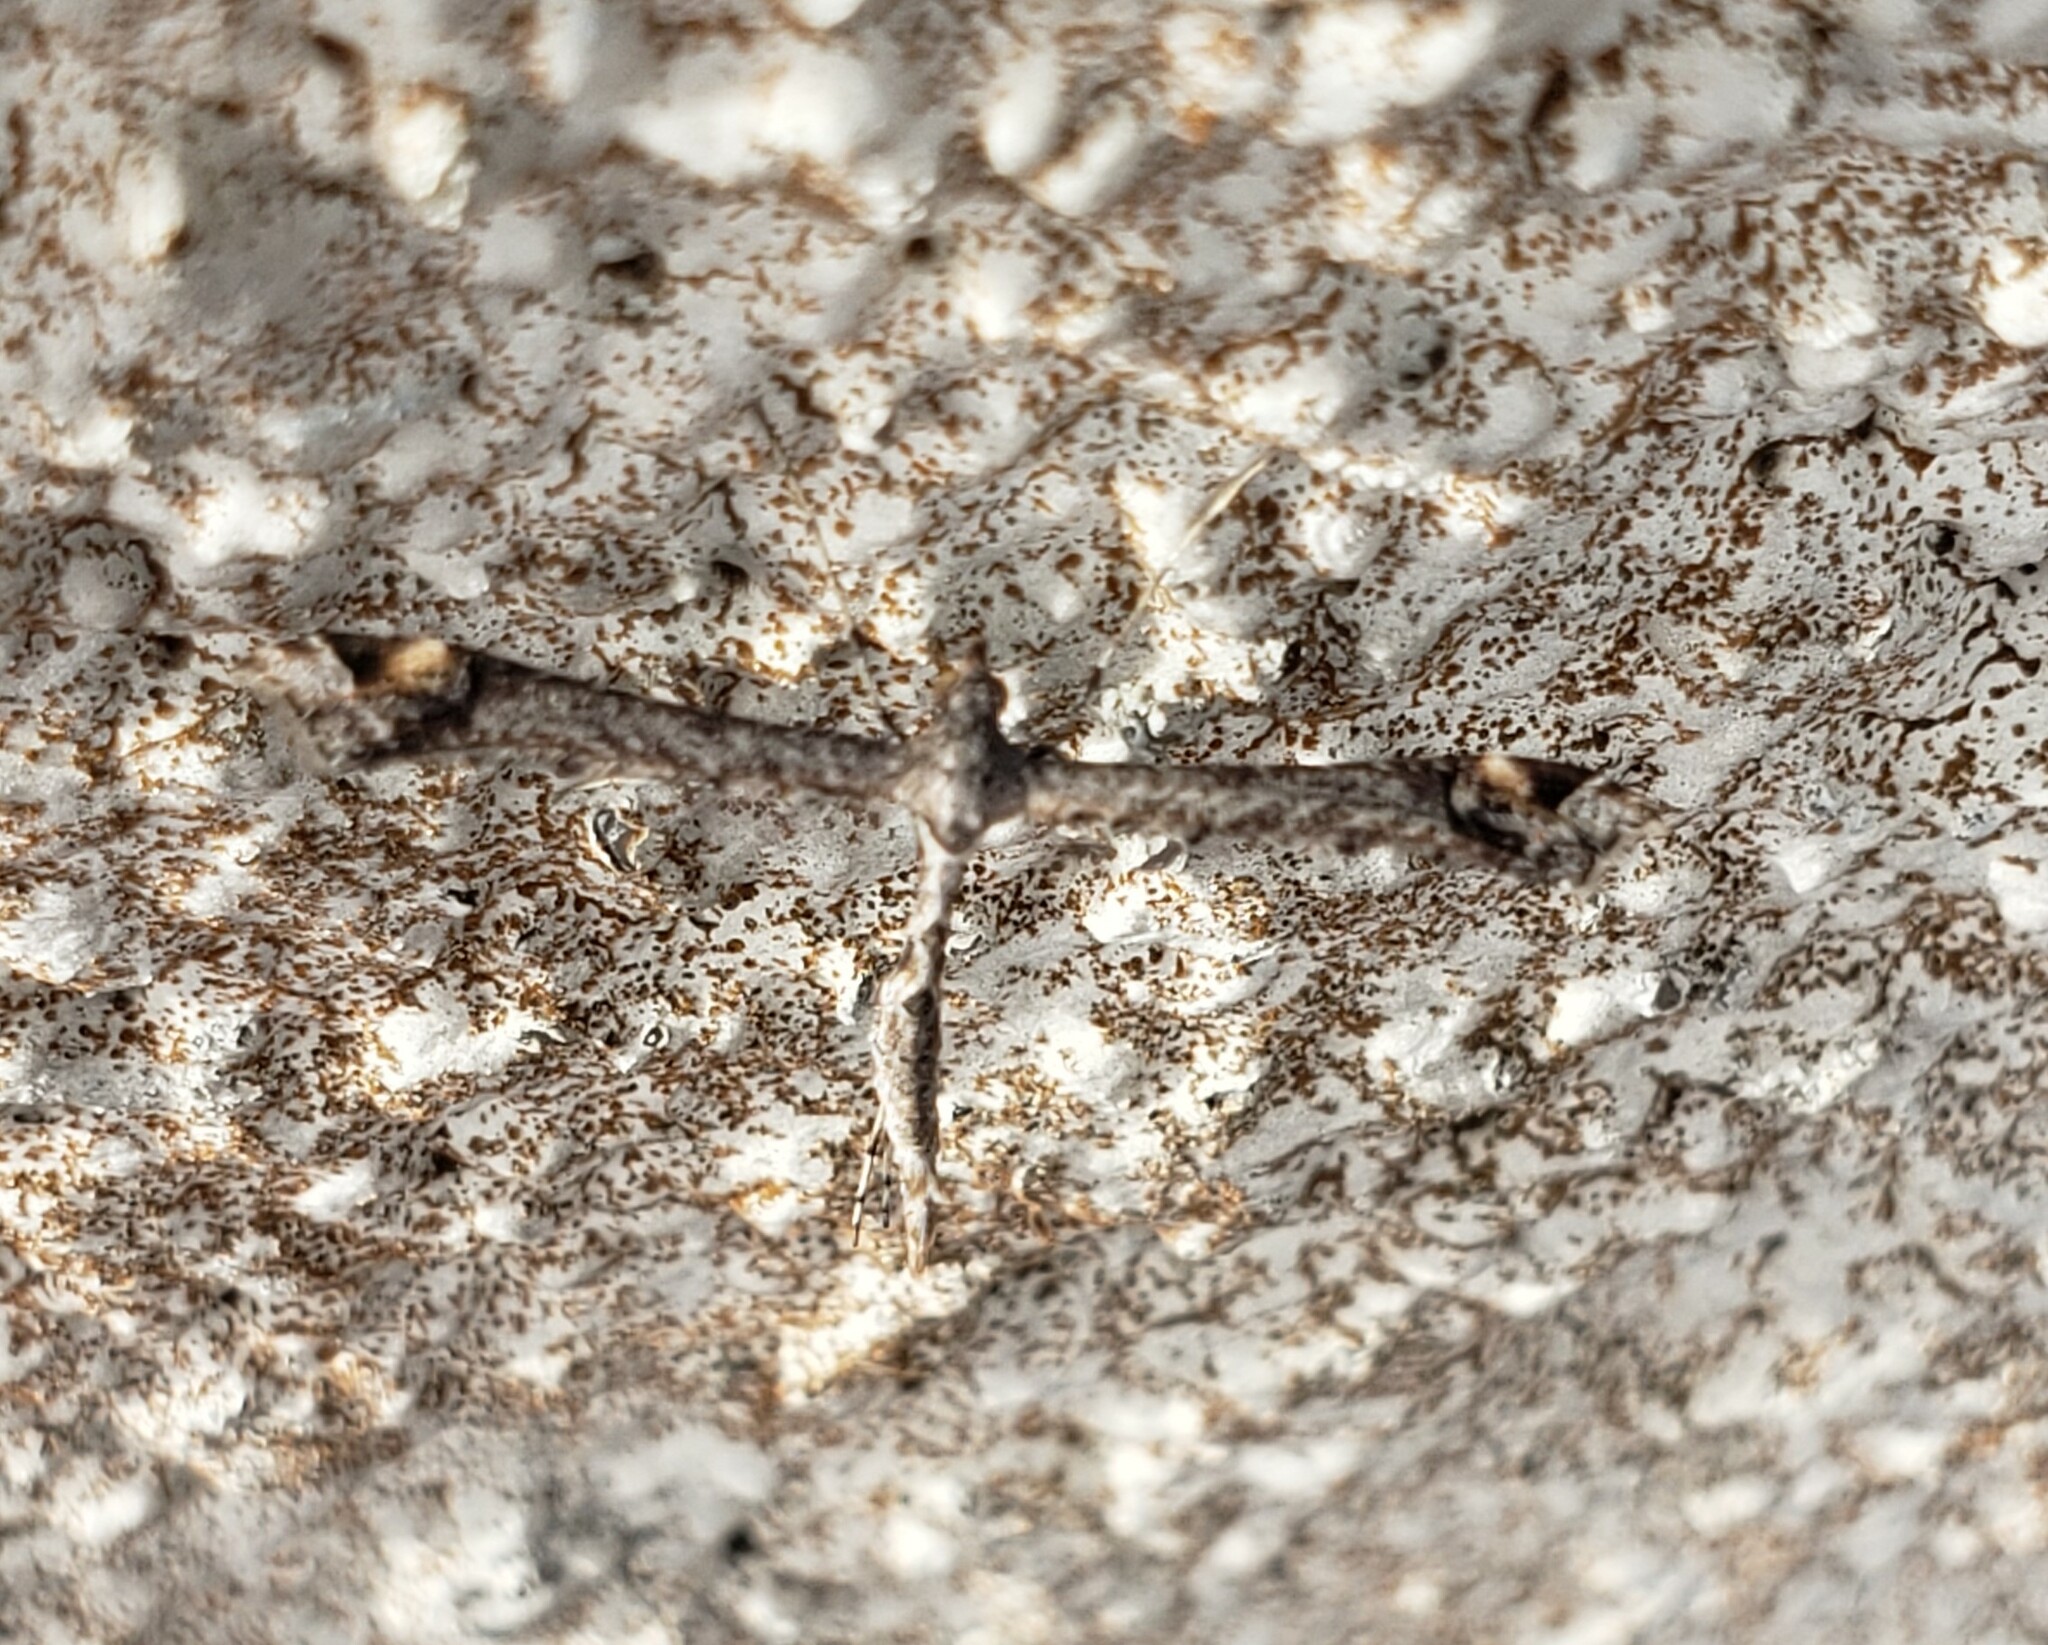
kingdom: Animalia
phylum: Arthropoda
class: Insecta
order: Lepidoptera
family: Pterophoridae
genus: Anstenoptilia
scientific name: Anstenoptilia marmarodactyla
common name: Moth
